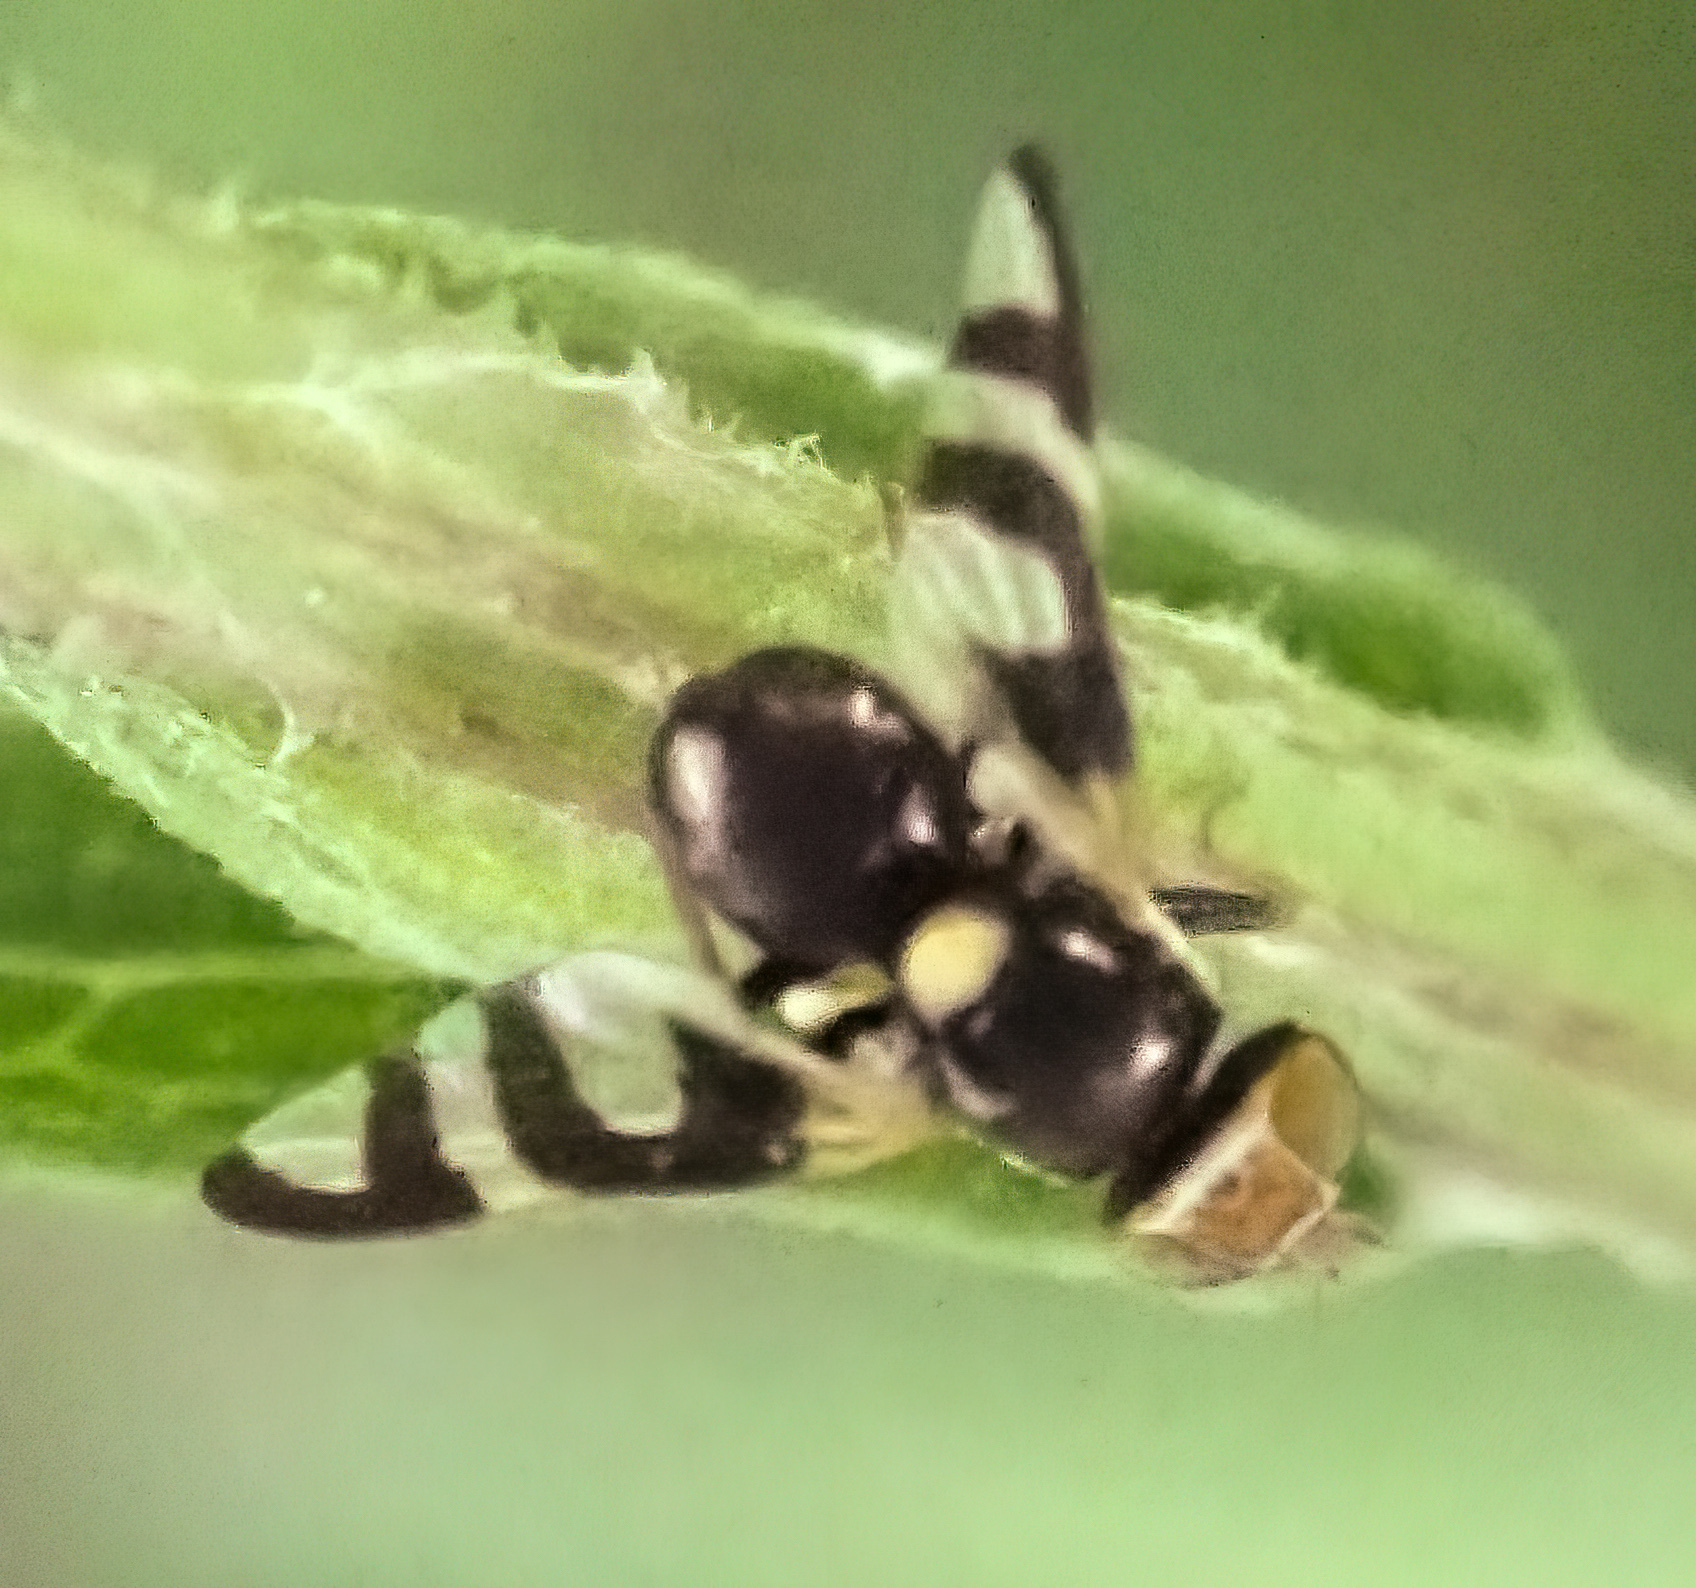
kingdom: Animalia
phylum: Arthropoda
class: Insecta
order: Diptera
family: Tephritidae
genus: Urophora
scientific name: Urophora quadrifasciata
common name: Knapweed seedhead fly
